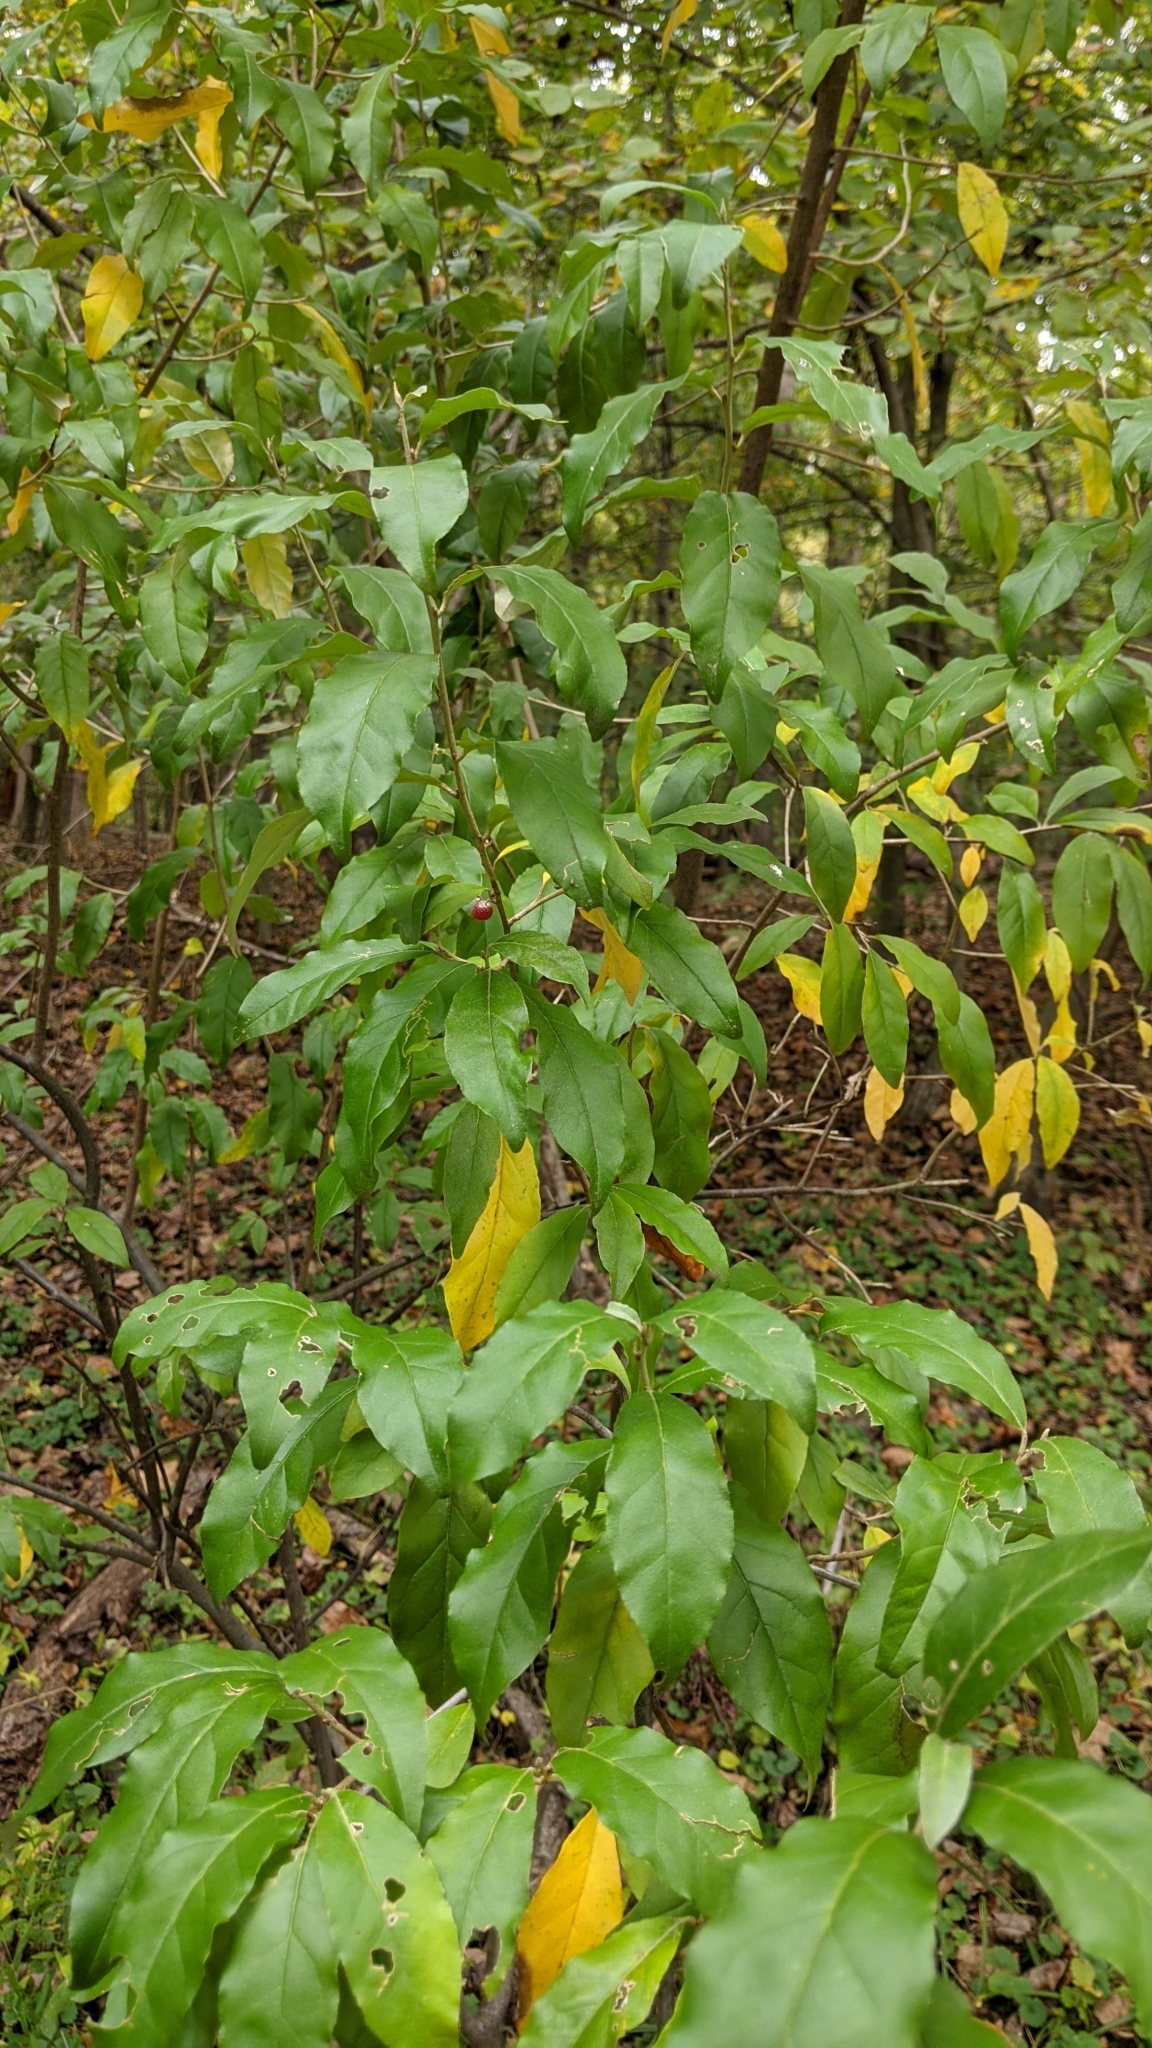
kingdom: Plantae
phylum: Tracheophyta
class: Magnoliopsida
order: Rosales
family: Elaeagnaceae
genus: Elaeagnus
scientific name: Elaeagnus umbellata
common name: Autumn olive
